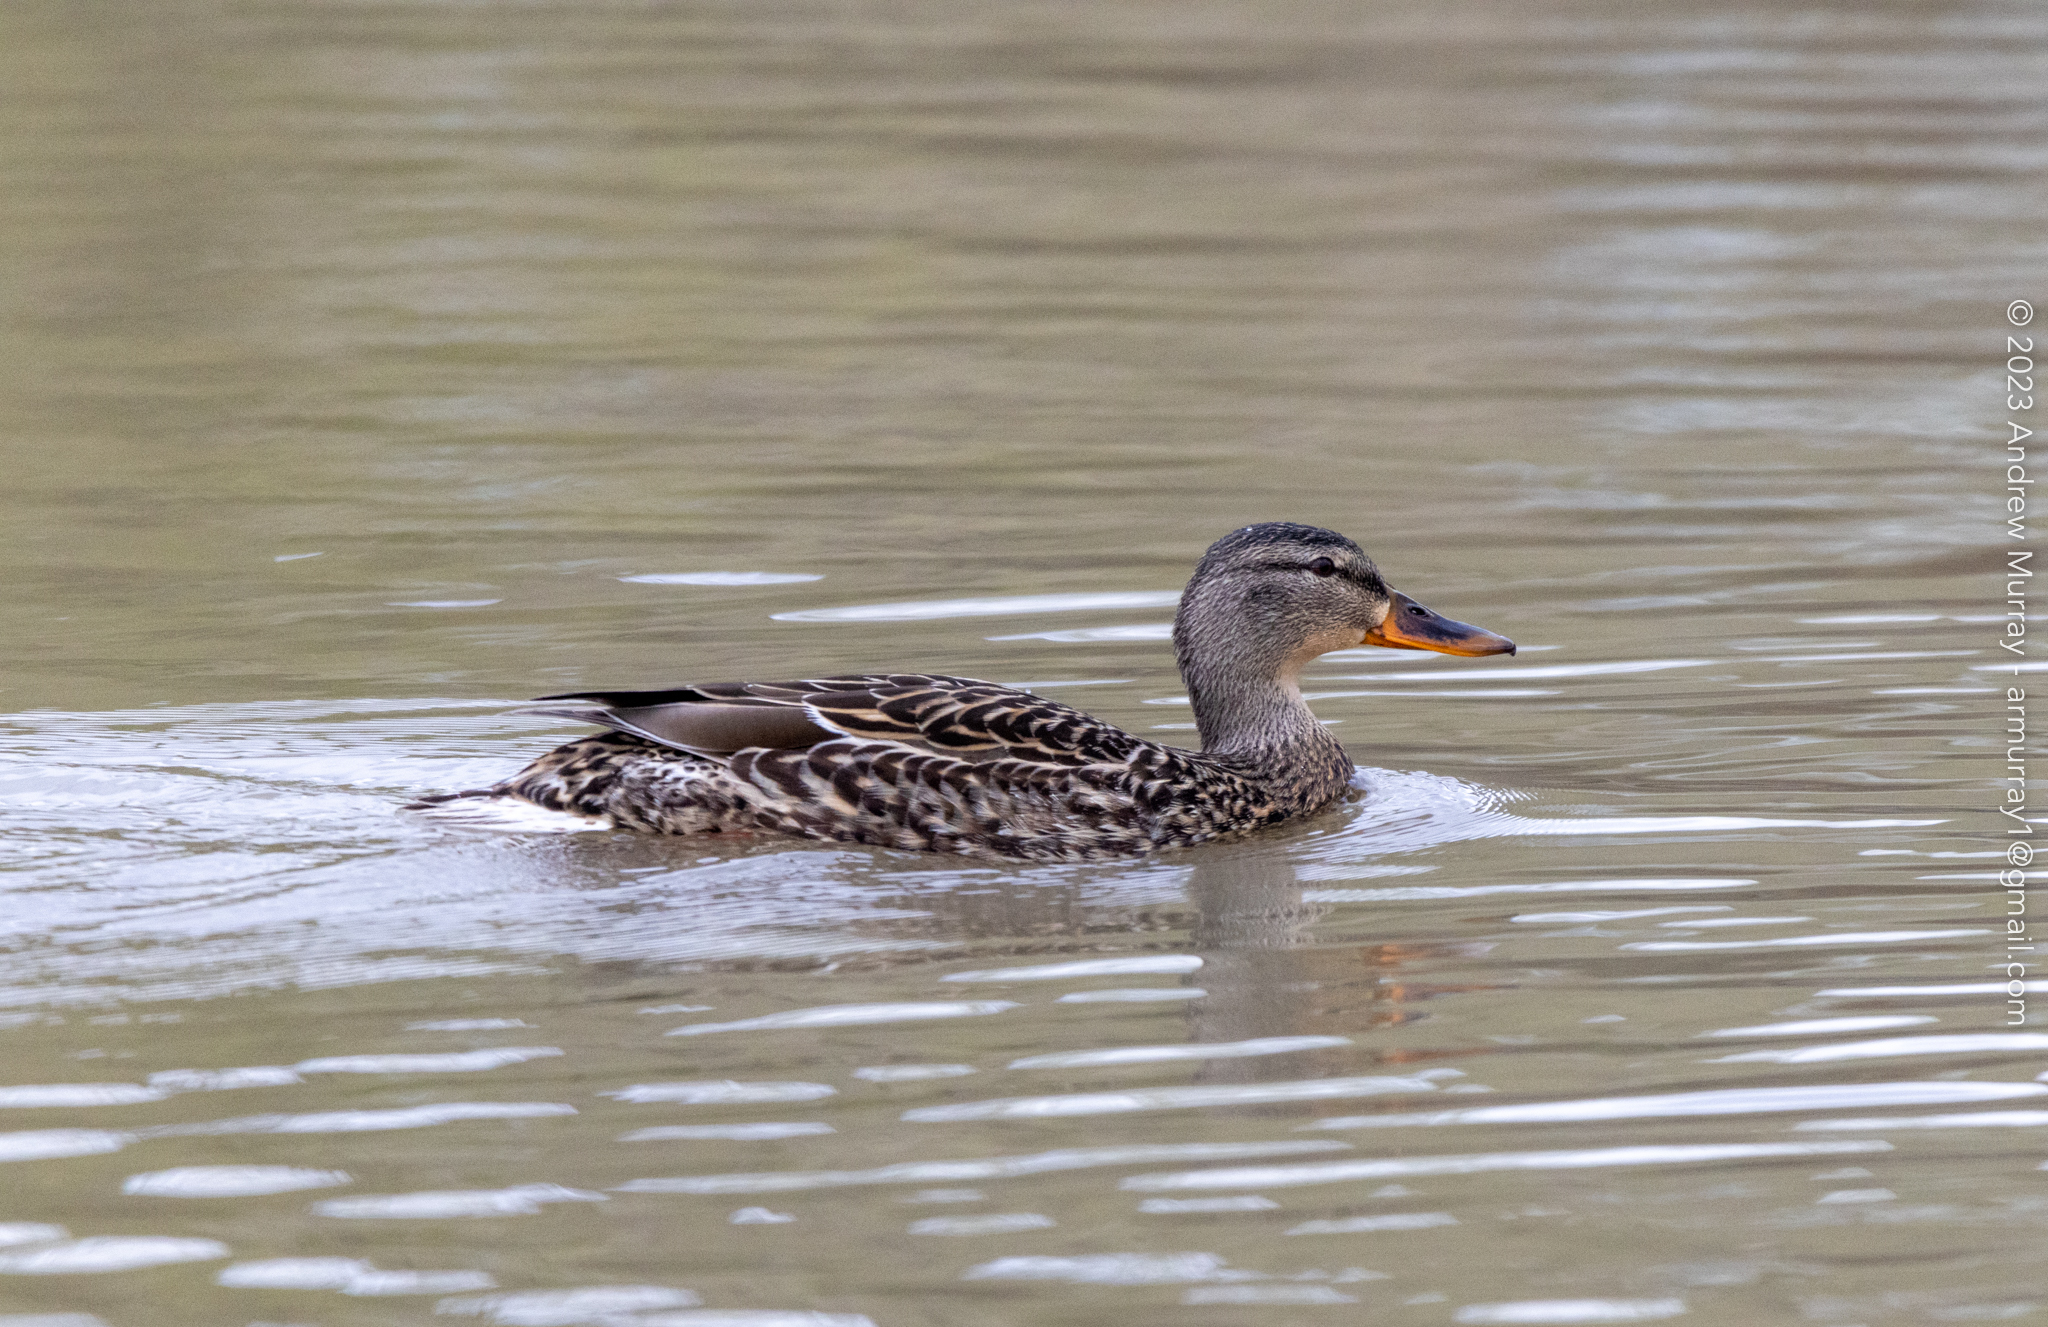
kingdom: Animalia
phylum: Chordata
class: Aves
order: Anseriformes
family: Anatidae
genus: Anas
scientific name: Anas platyrhynchos
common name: Mallard
